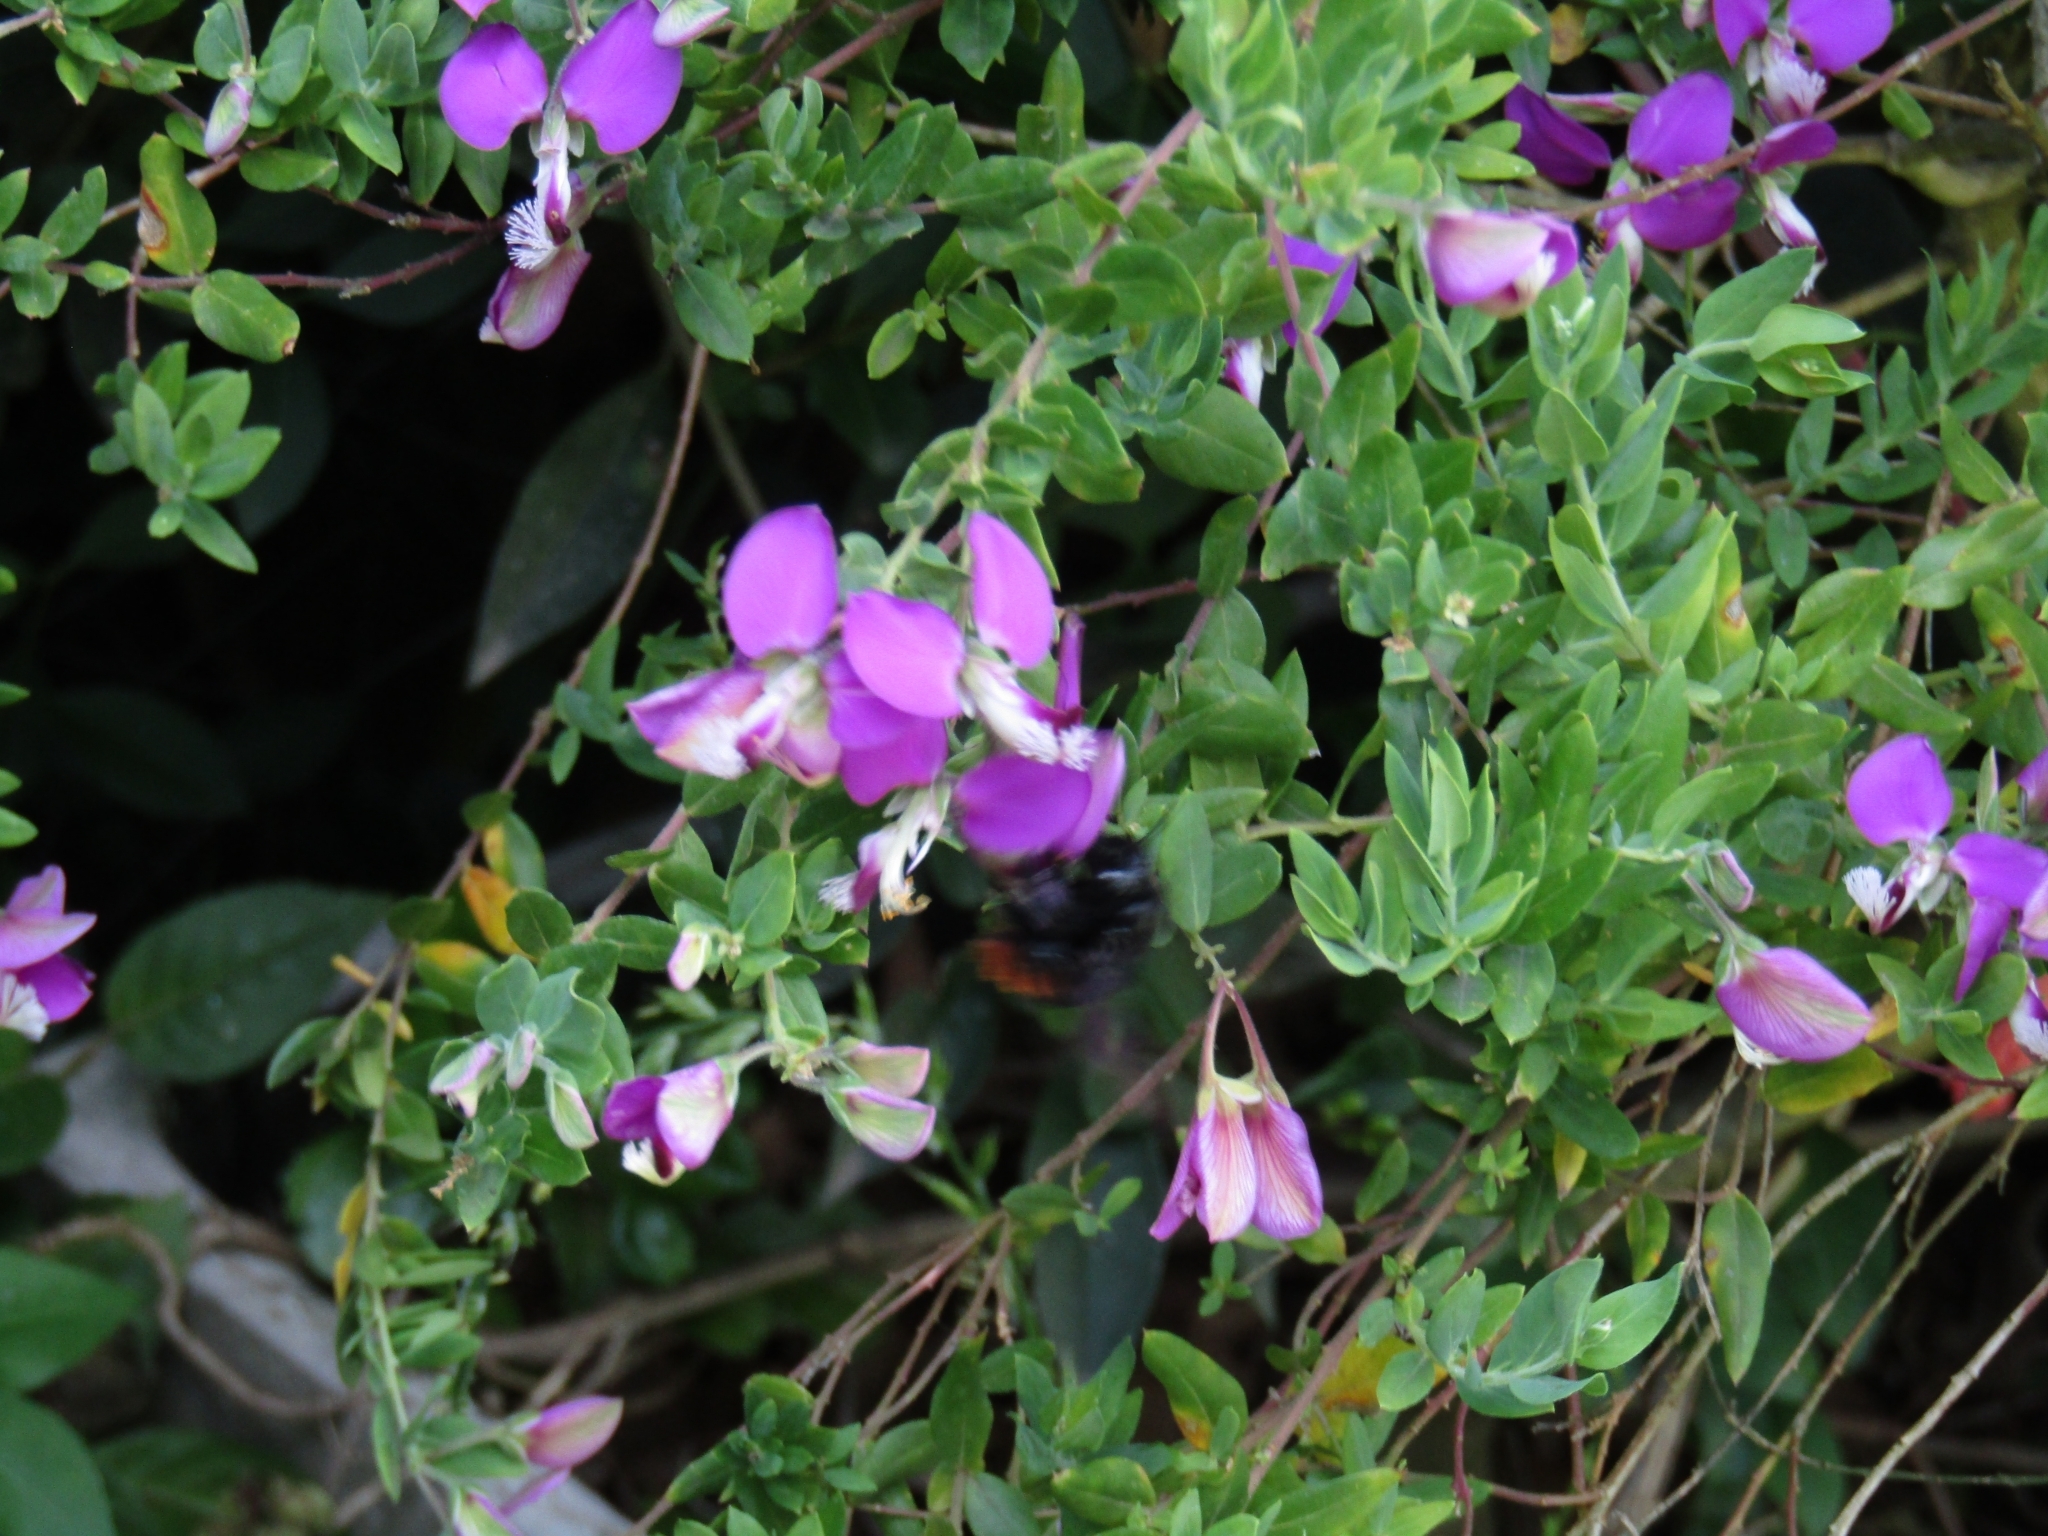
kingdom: Animalia
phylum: Arthropoda
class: Insecta
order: Hymenoptera
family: Apidae
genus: Xylocopa
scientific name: Xylocopa augusti
